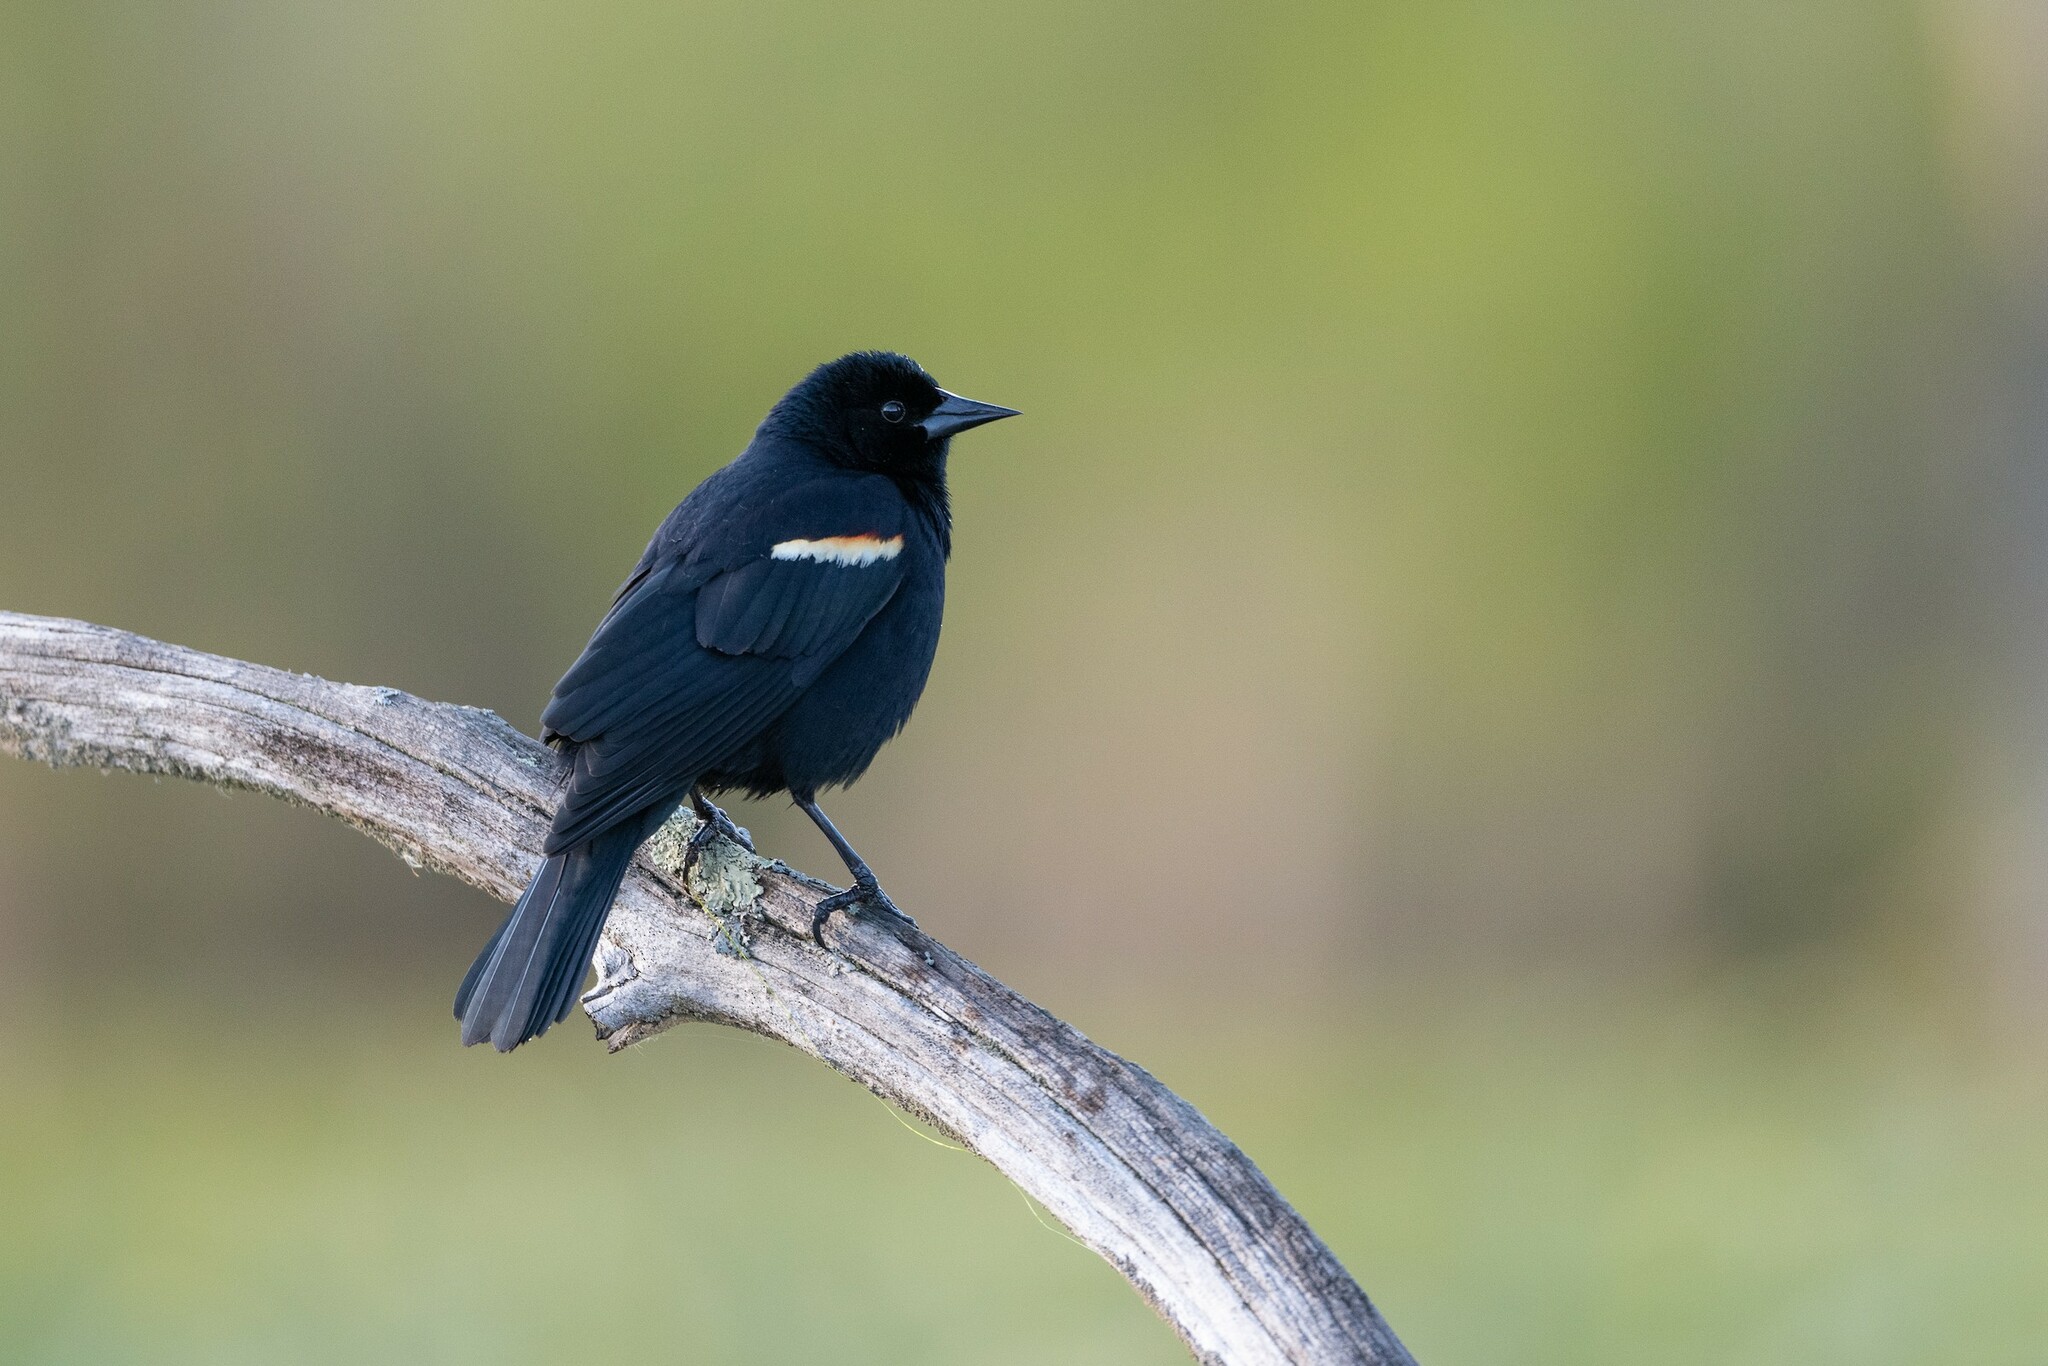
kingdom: Animalia
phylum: Chordata
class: Aves
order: Passeriformes
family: Icteridae
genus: Agelaius
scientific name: Agelaius phoeniceus
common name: Red-winged blackbird
